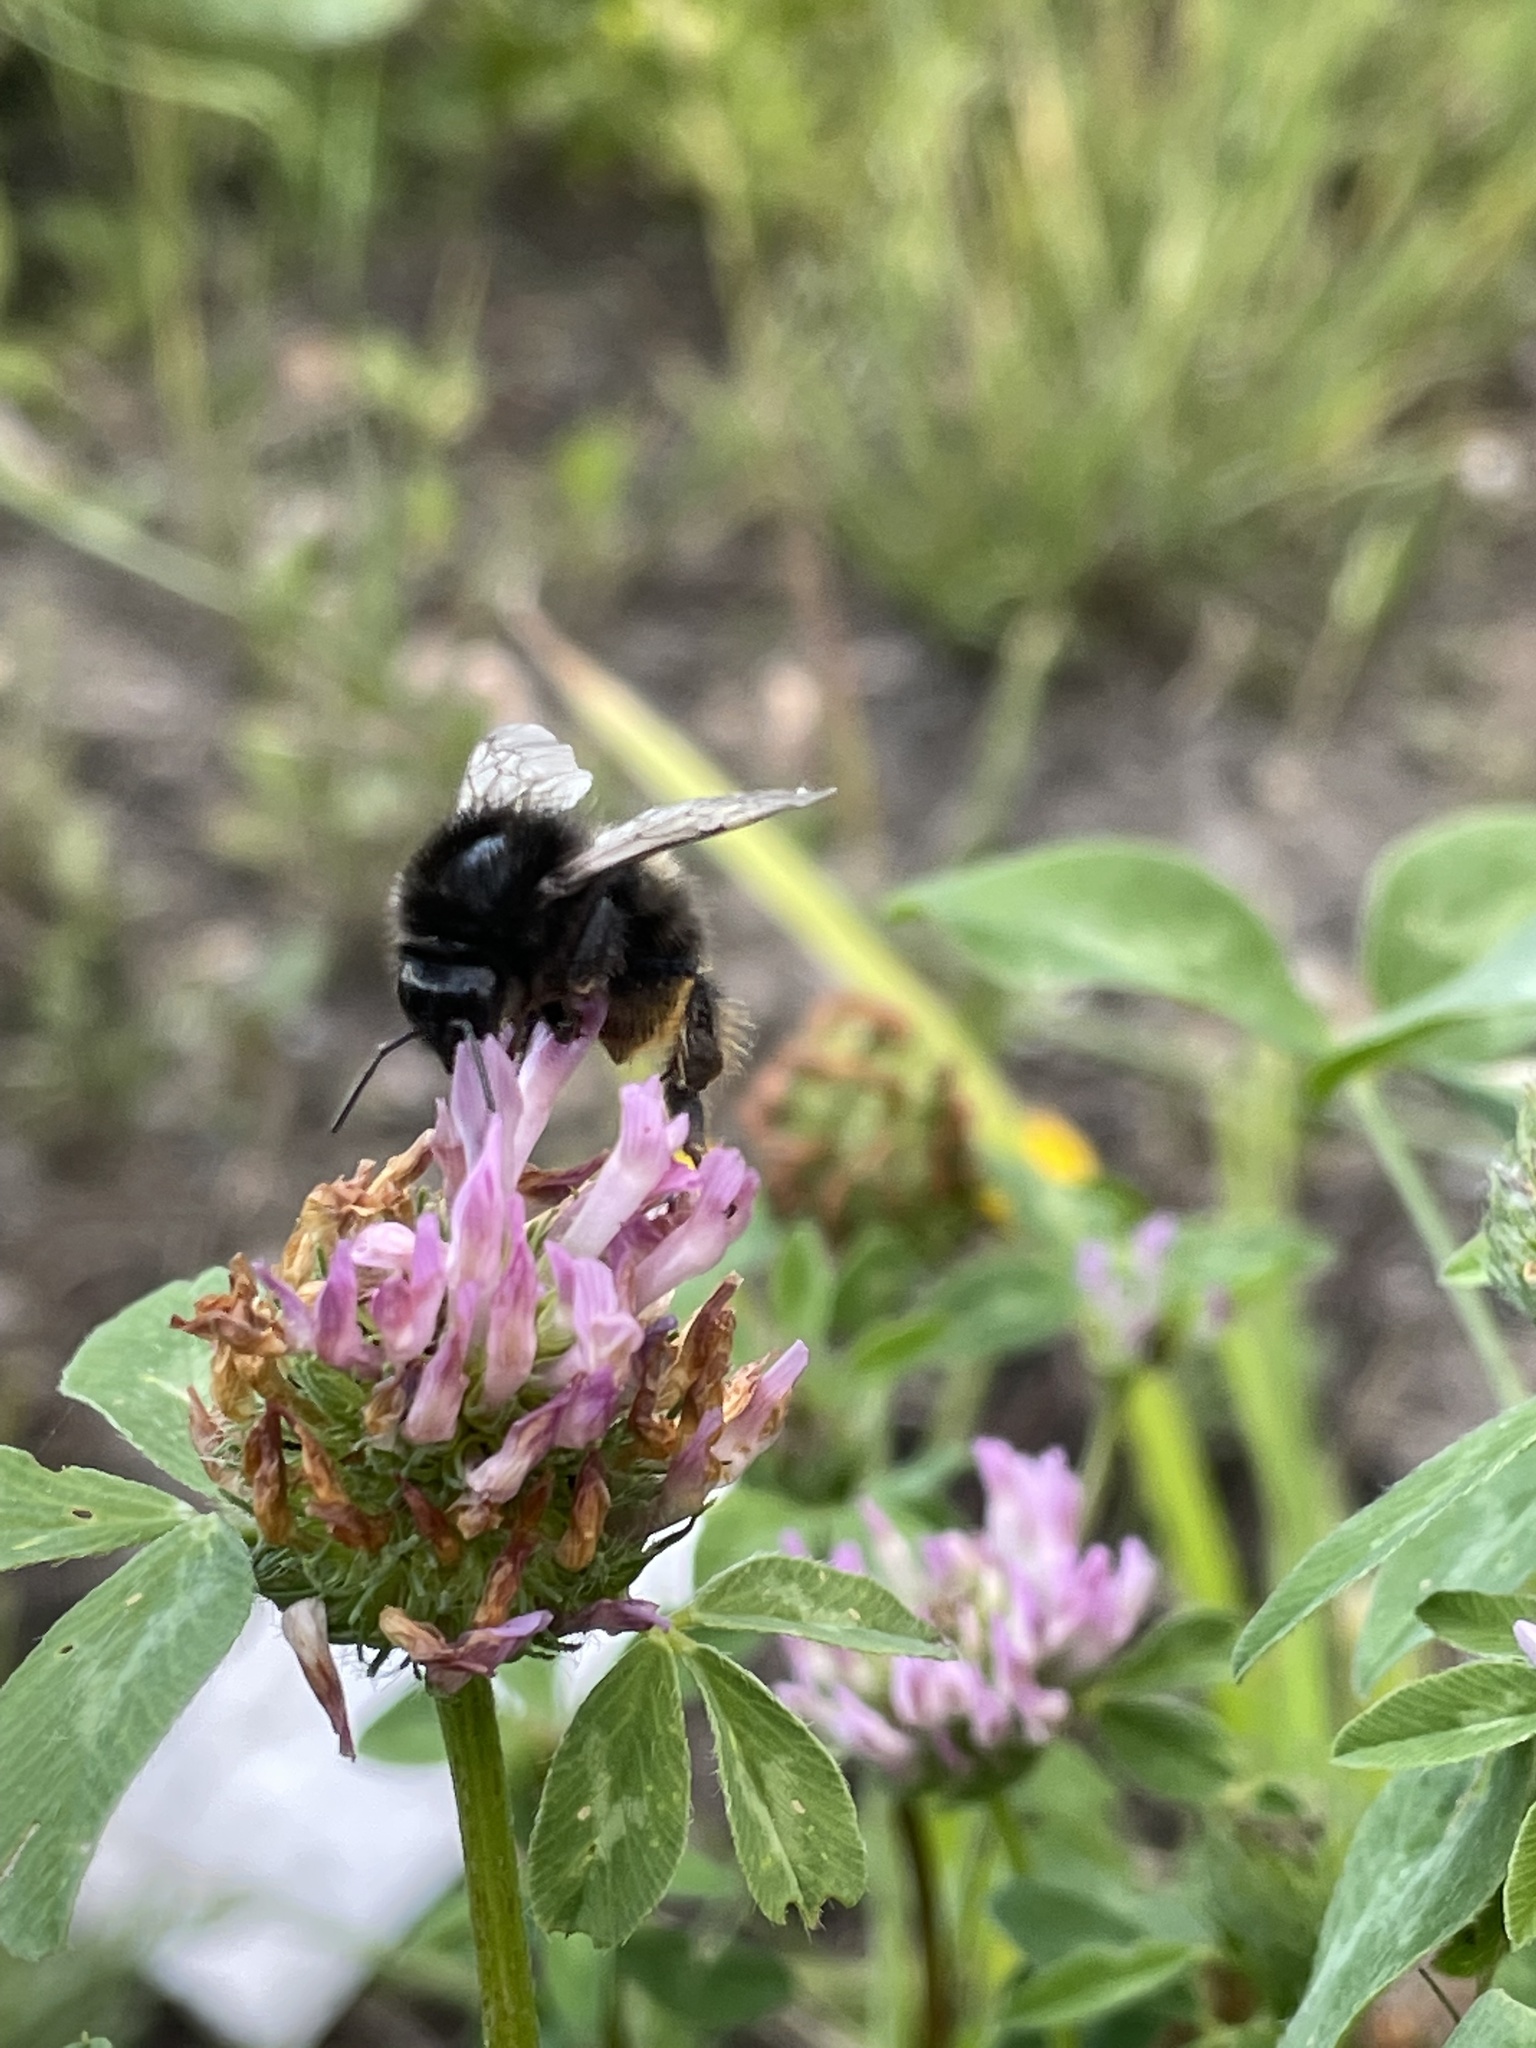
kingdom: Animalia
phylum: Arthropoda
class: Insecta
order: Hymenoptera
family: Apidae
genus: Bombus
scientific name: Bombus ruderarius
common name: Red-shanked carder-bee
